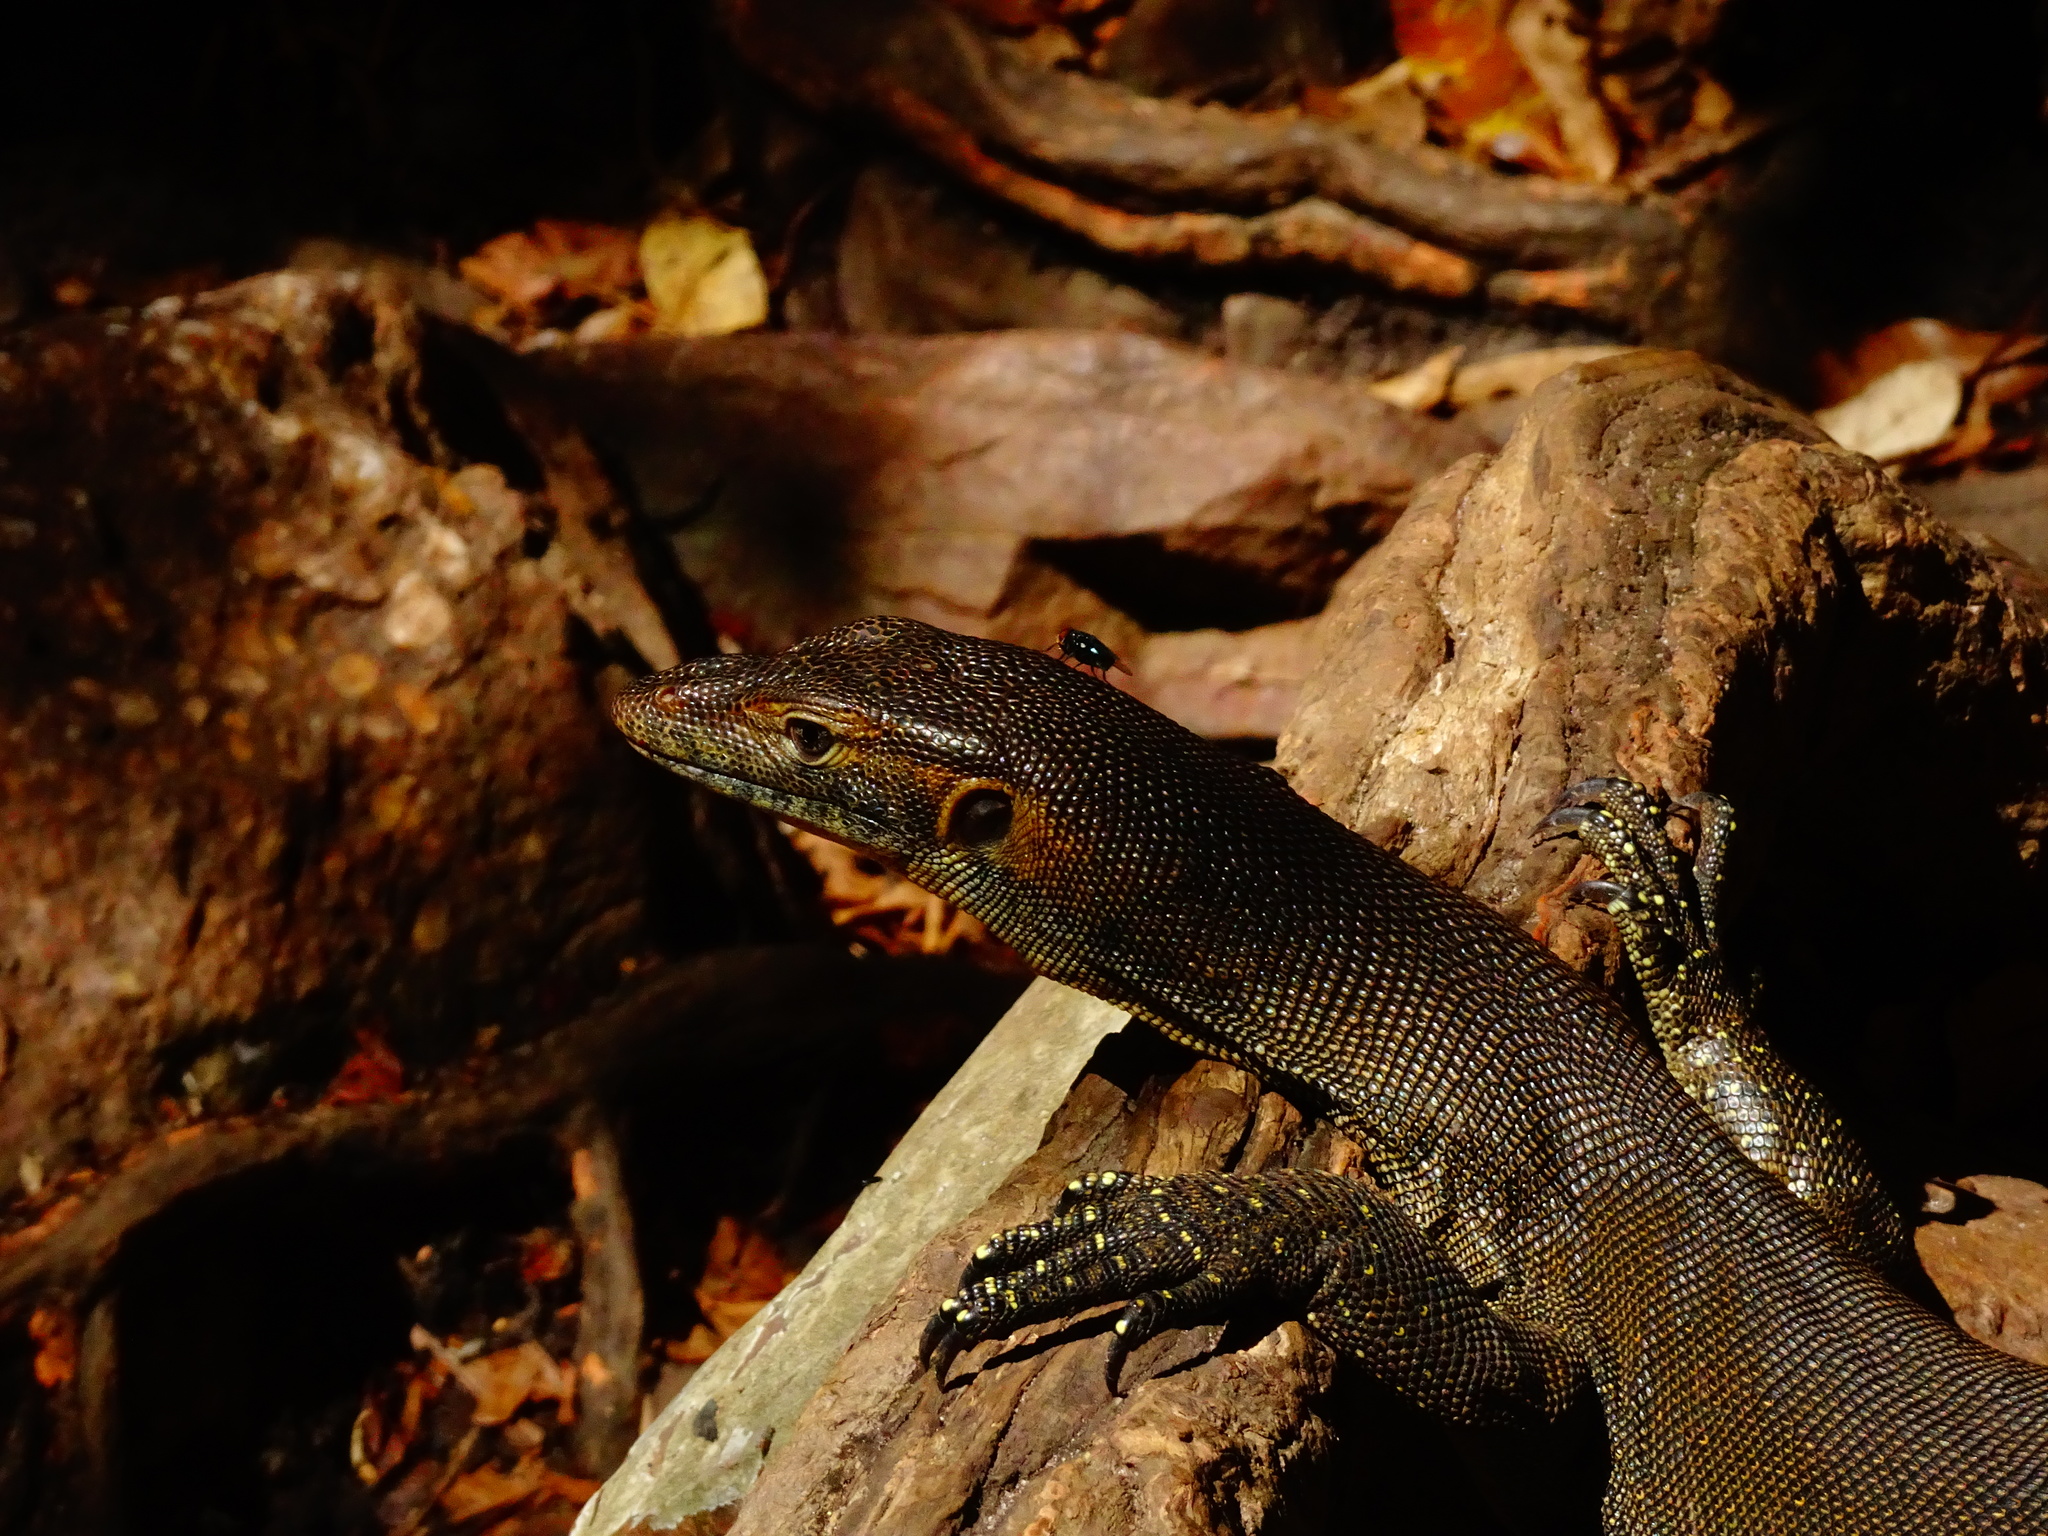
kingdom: Animalia
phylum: Chordata
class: Squamata
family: Varanidae
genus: Varanus
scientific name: Varanus mertensi
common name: Mertens's water monitor
